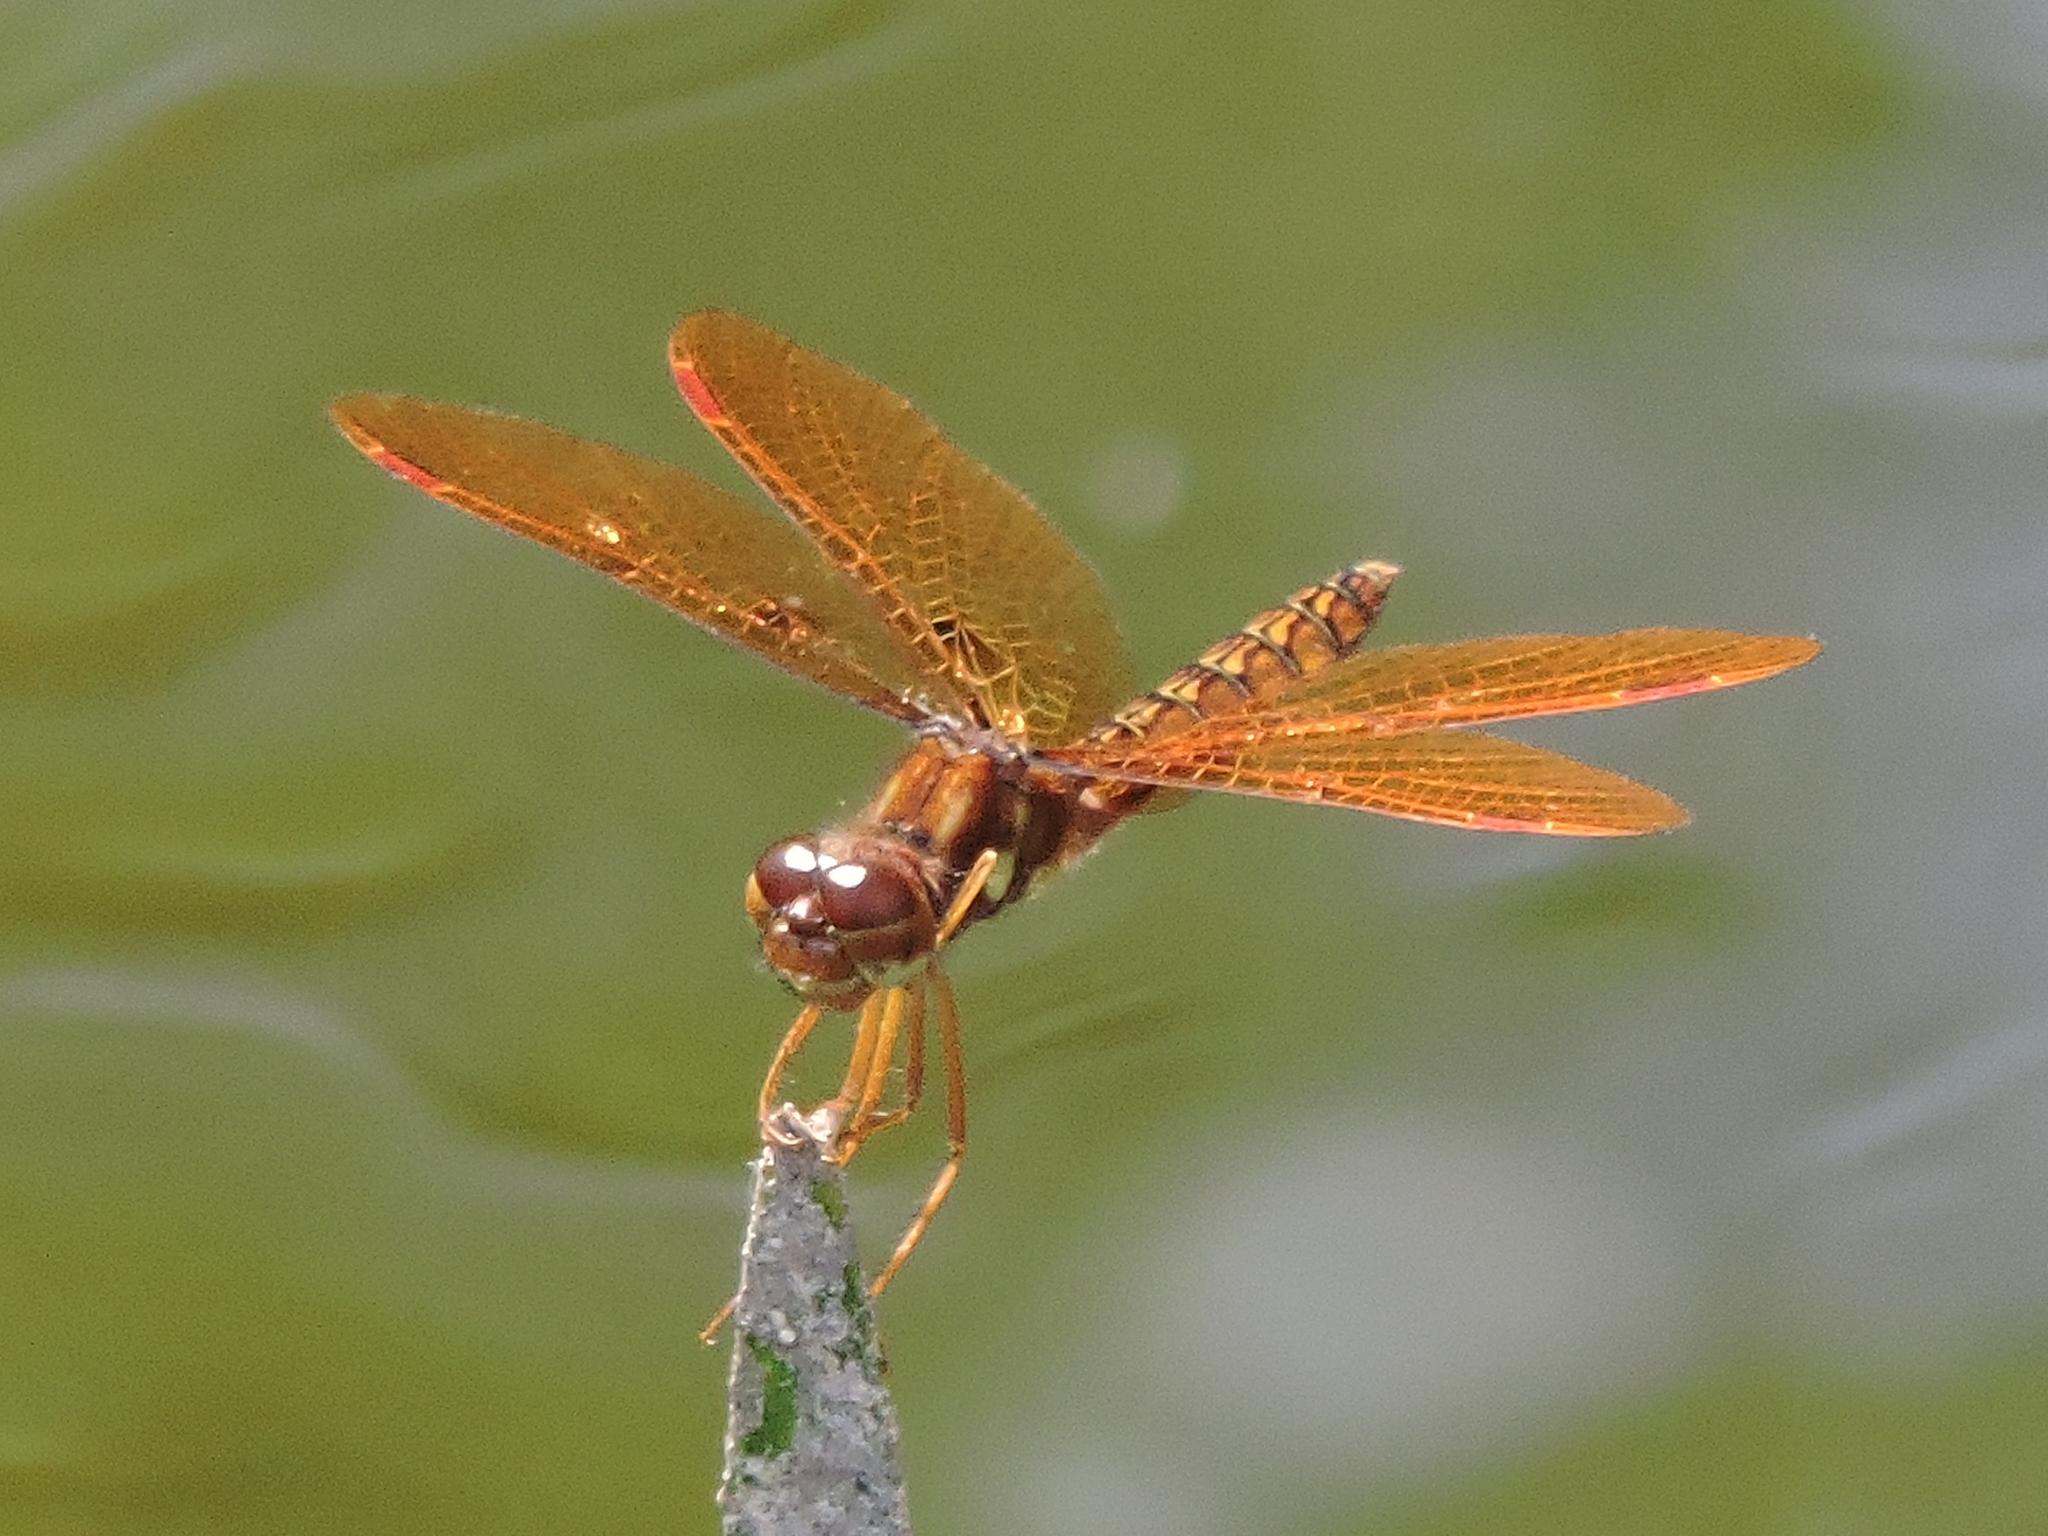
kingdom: Animalia
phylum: Arthropoda
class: Insecta
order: Odonata
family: Libellulidae
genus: Perithemis
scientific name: Perithemis tenera
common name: Eastern amberwing
